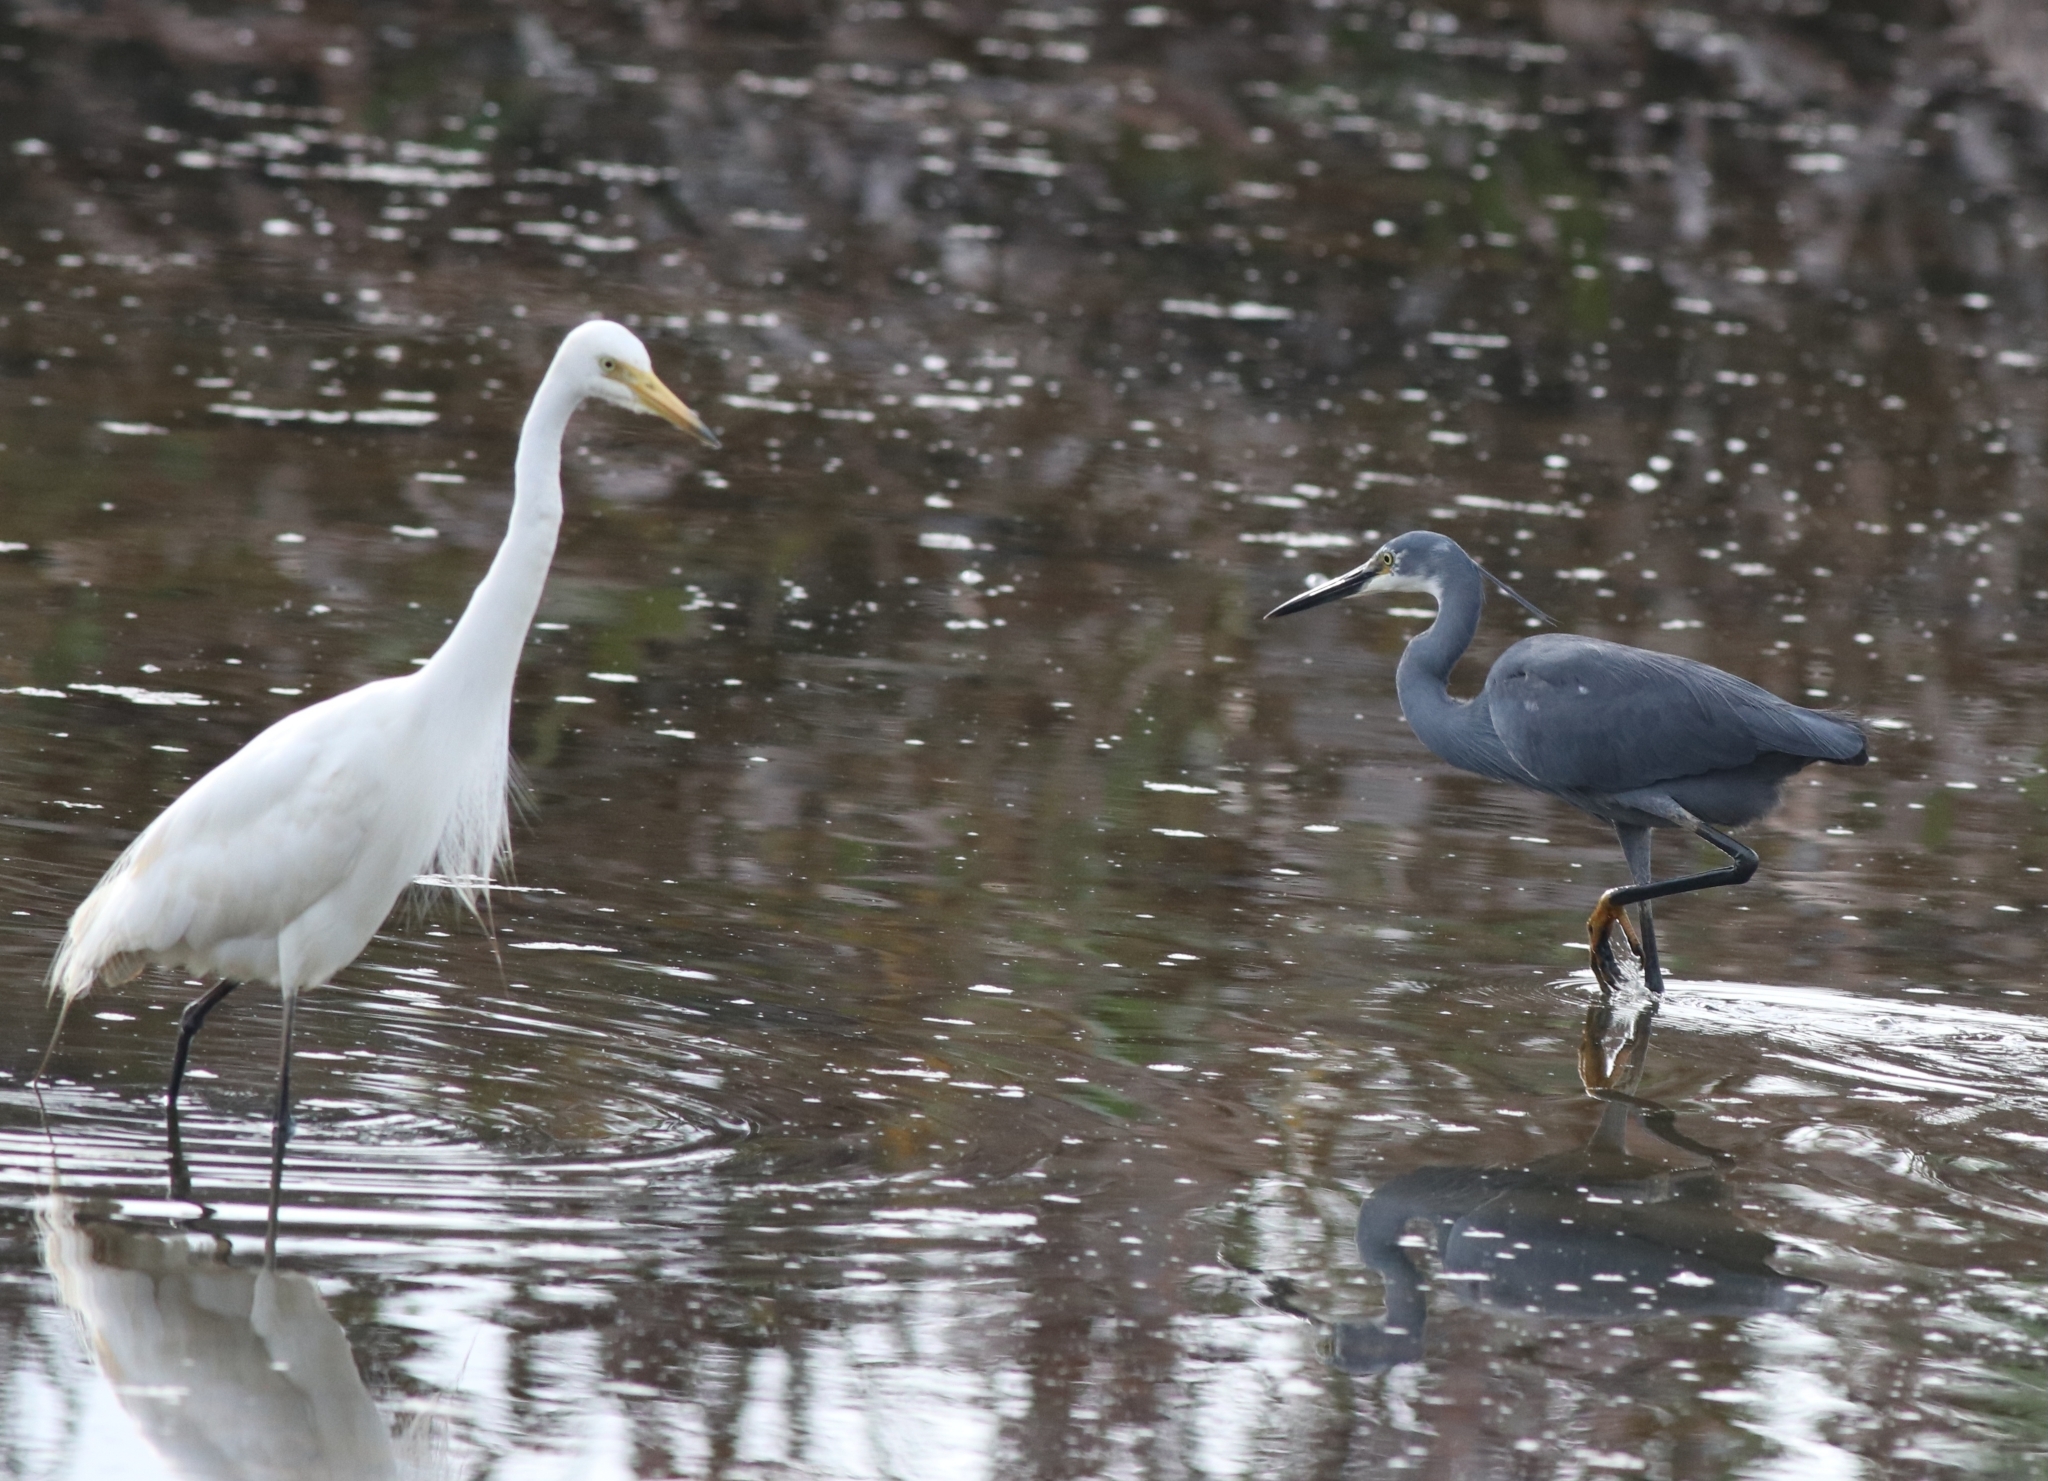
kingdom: Animalia
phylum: Chordata
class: Aves
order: Pelecaniformes
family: Ardeidae
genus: Egretta
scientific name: Egretta garzetta
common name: Little egret
